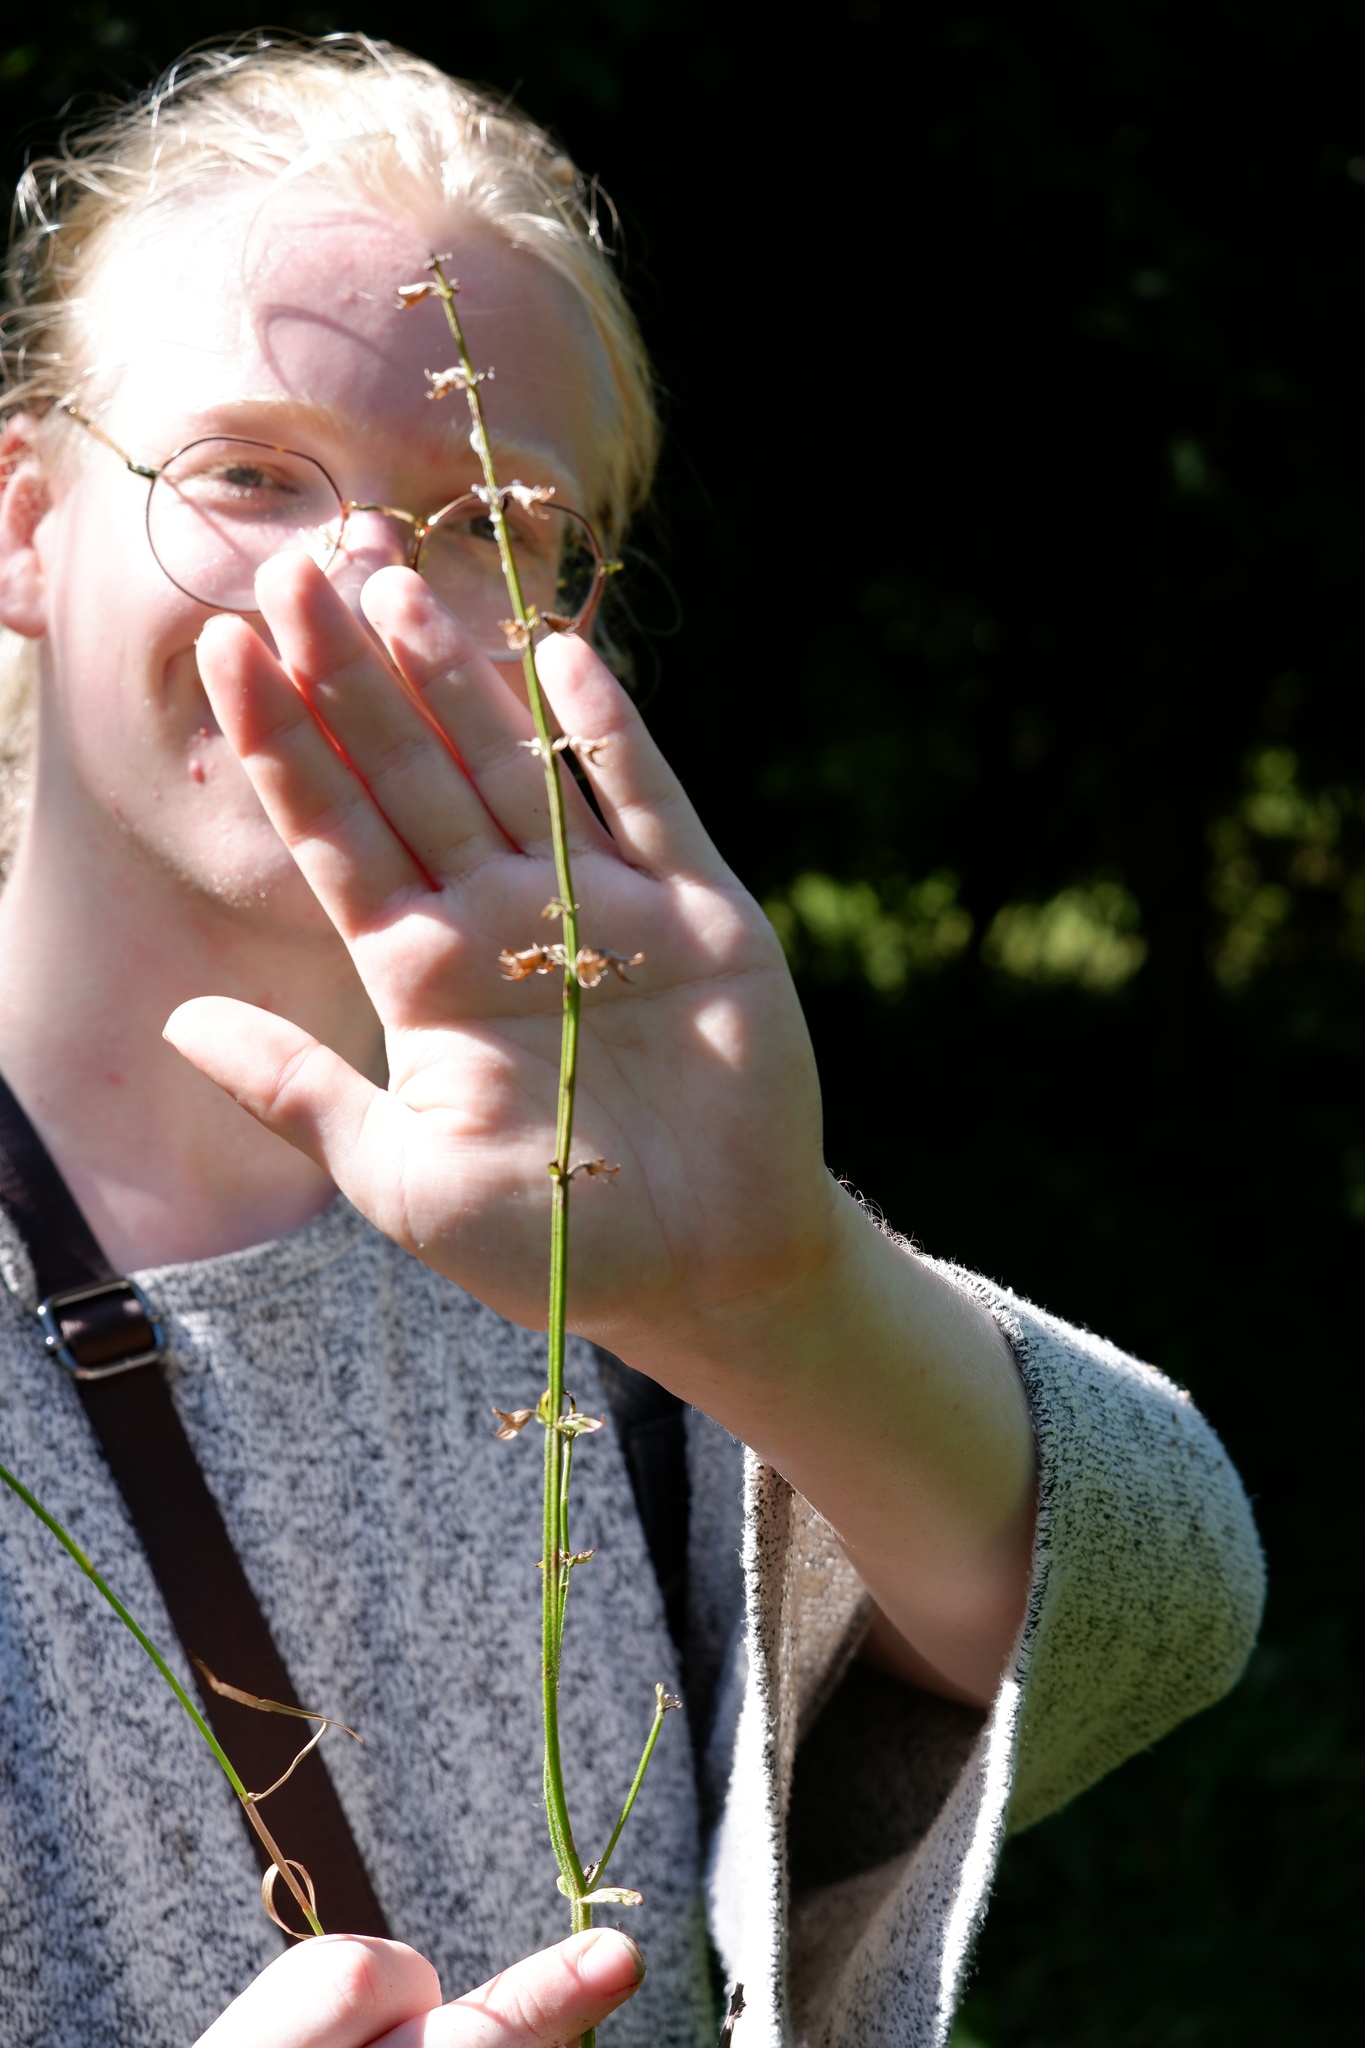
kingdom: Plantae
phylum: Tracheophyta
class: Magnoliopsida
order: Lamiales
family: Lamiaceae
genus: Salvia
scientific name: Salvia lyrata
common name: Cancerweed
